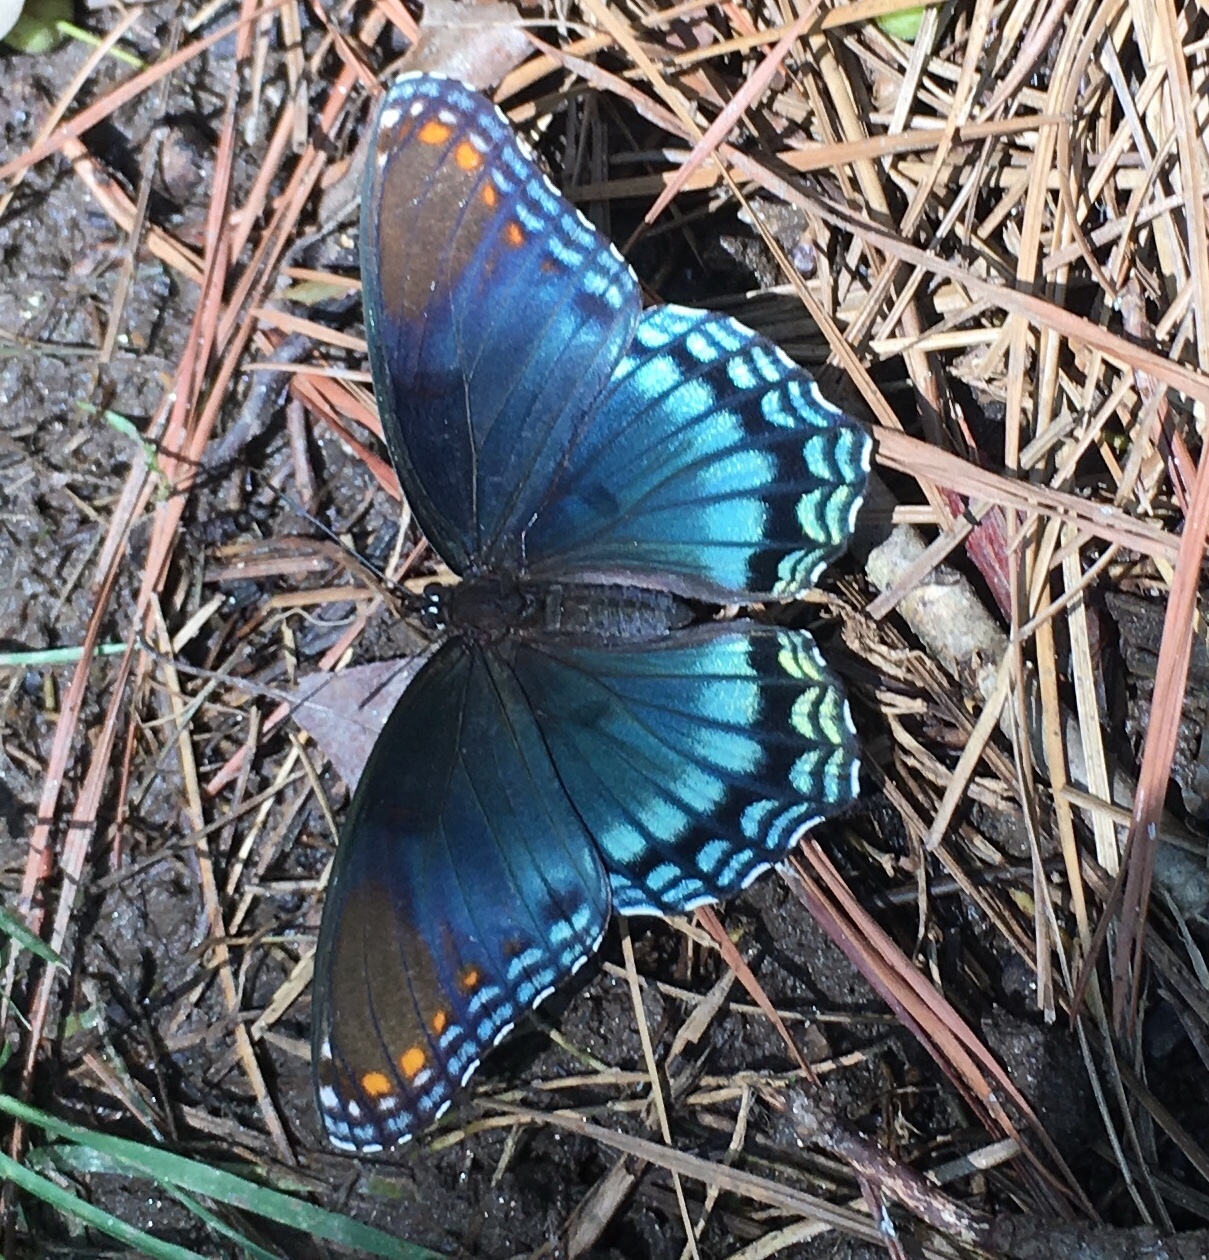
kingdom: Animalia
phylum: Arthropoda
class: Insecta
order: Lepidoptera
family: Nymphalidae
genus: Limenitis
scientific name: Limenitis astyanax
